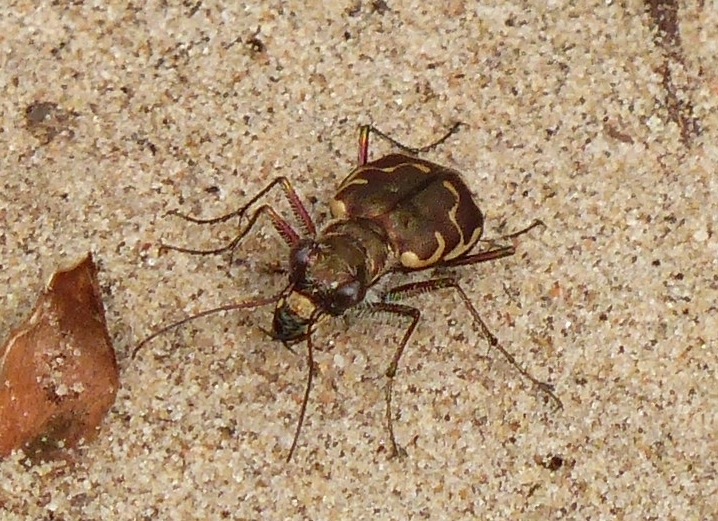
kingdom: Animalia
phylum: Arthropoda
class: Insecta
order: Coleoptera
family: Carabidae
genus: Cicindela
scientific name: Cicindela repanda
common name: Bronzed tiger beetle
